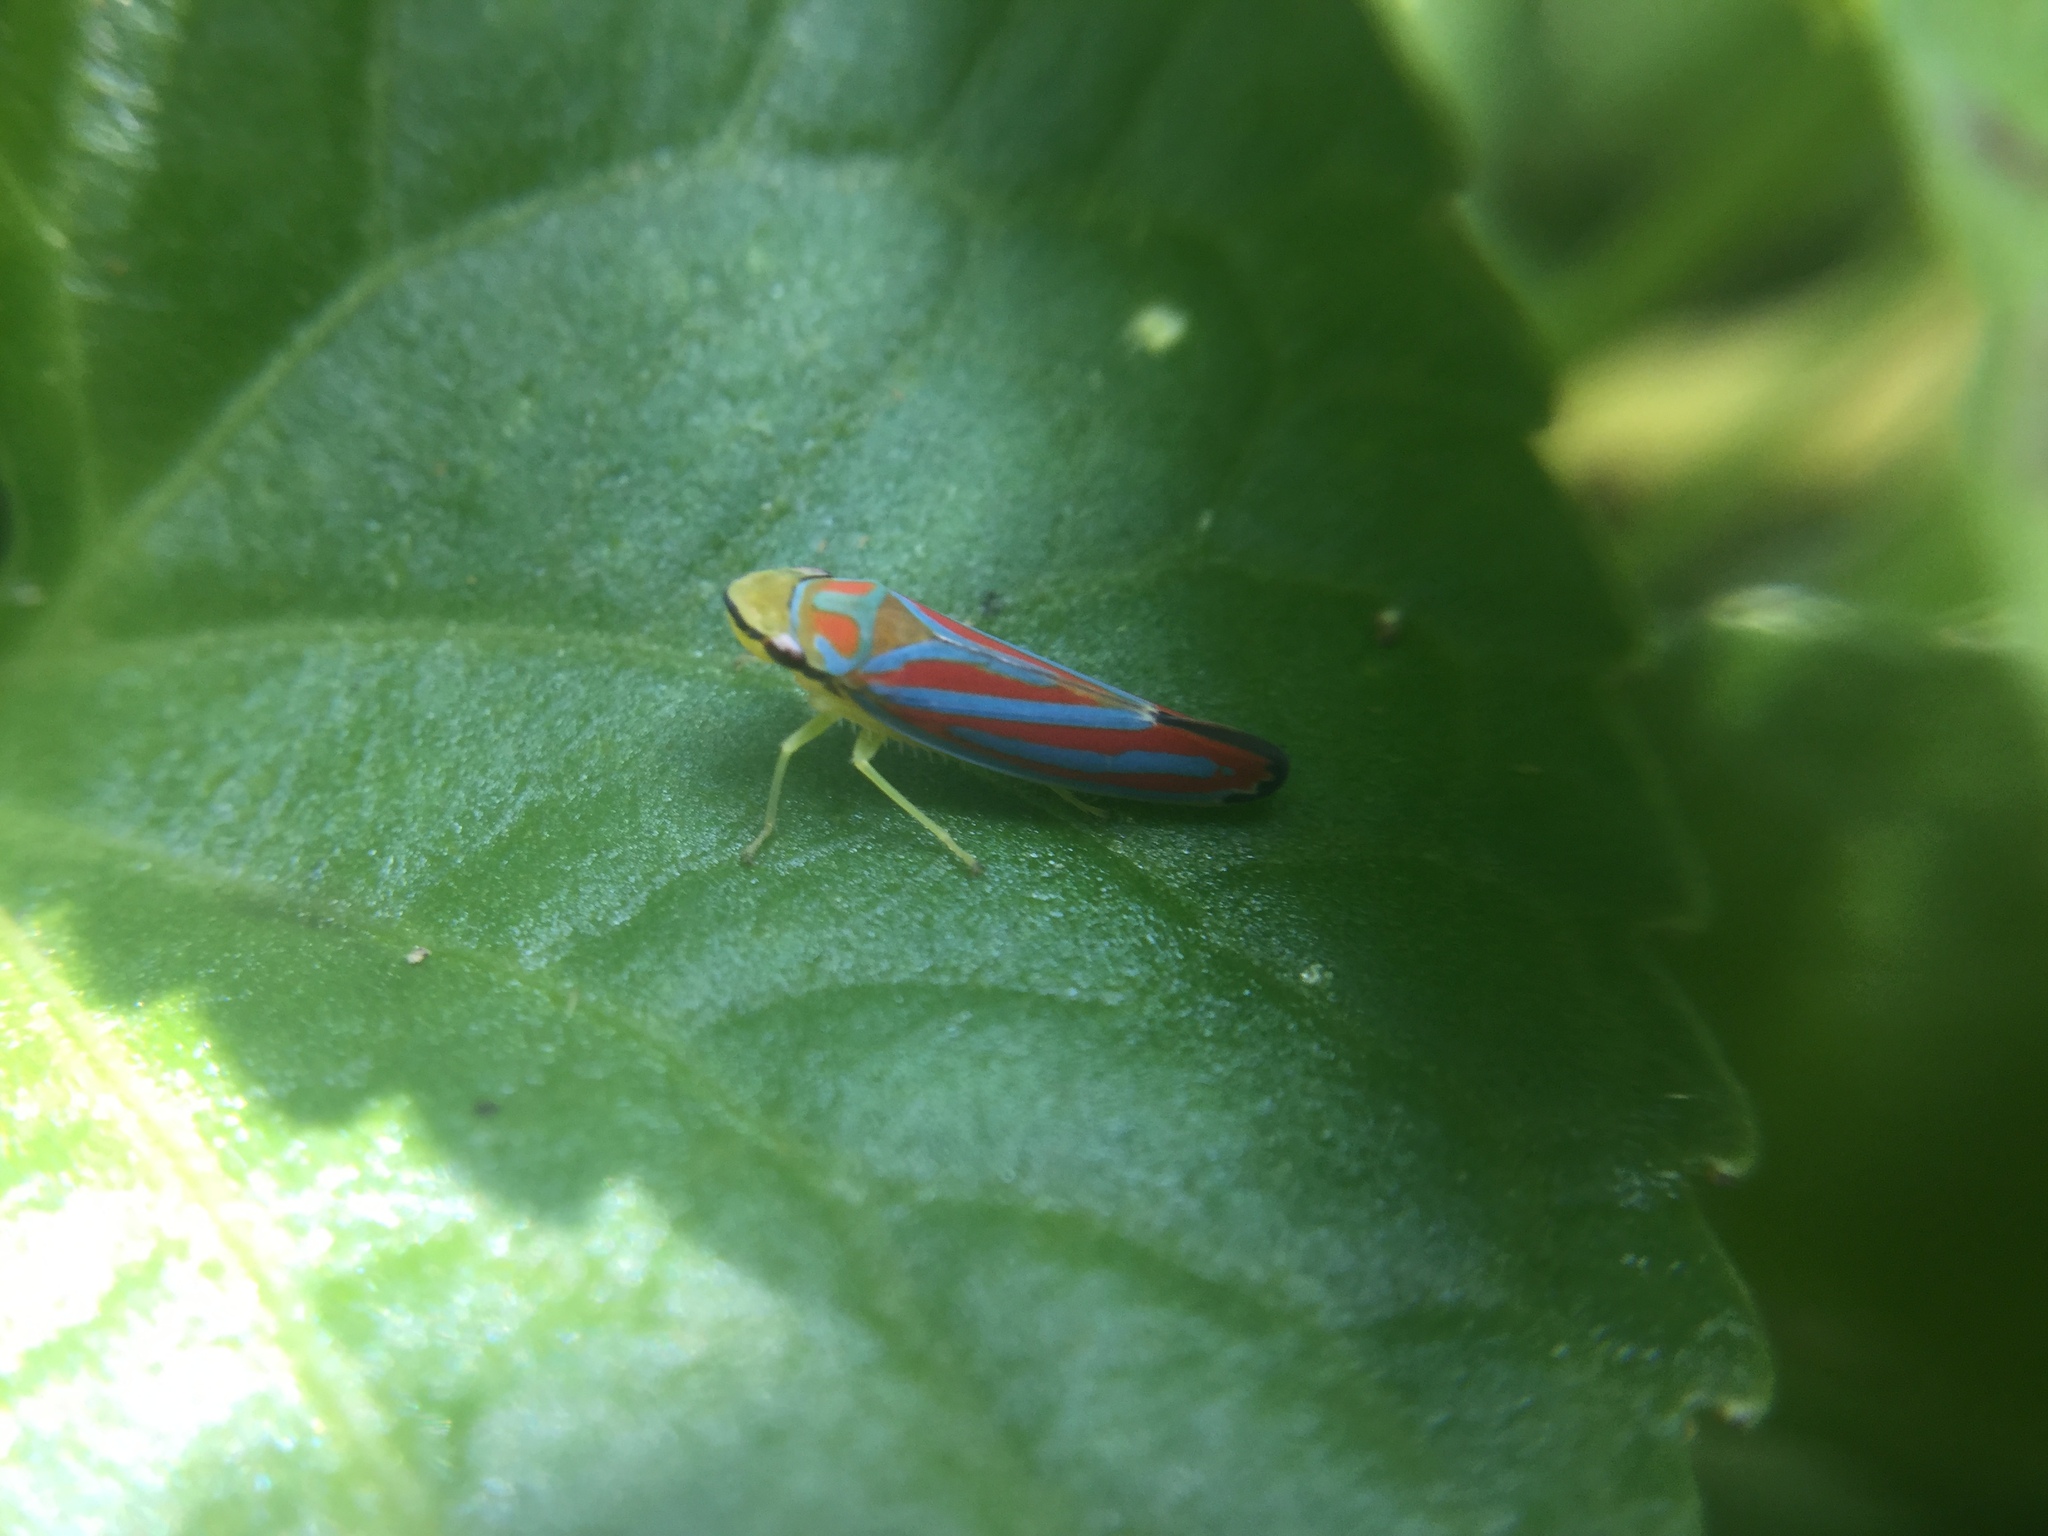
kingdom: Animalia
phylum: Arthropoda
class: Insecta
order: Hemiptera
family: Cicadellidae
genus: Graphocephala
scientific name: Graphocephala coccinea
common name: Candy-striped leafhopper
